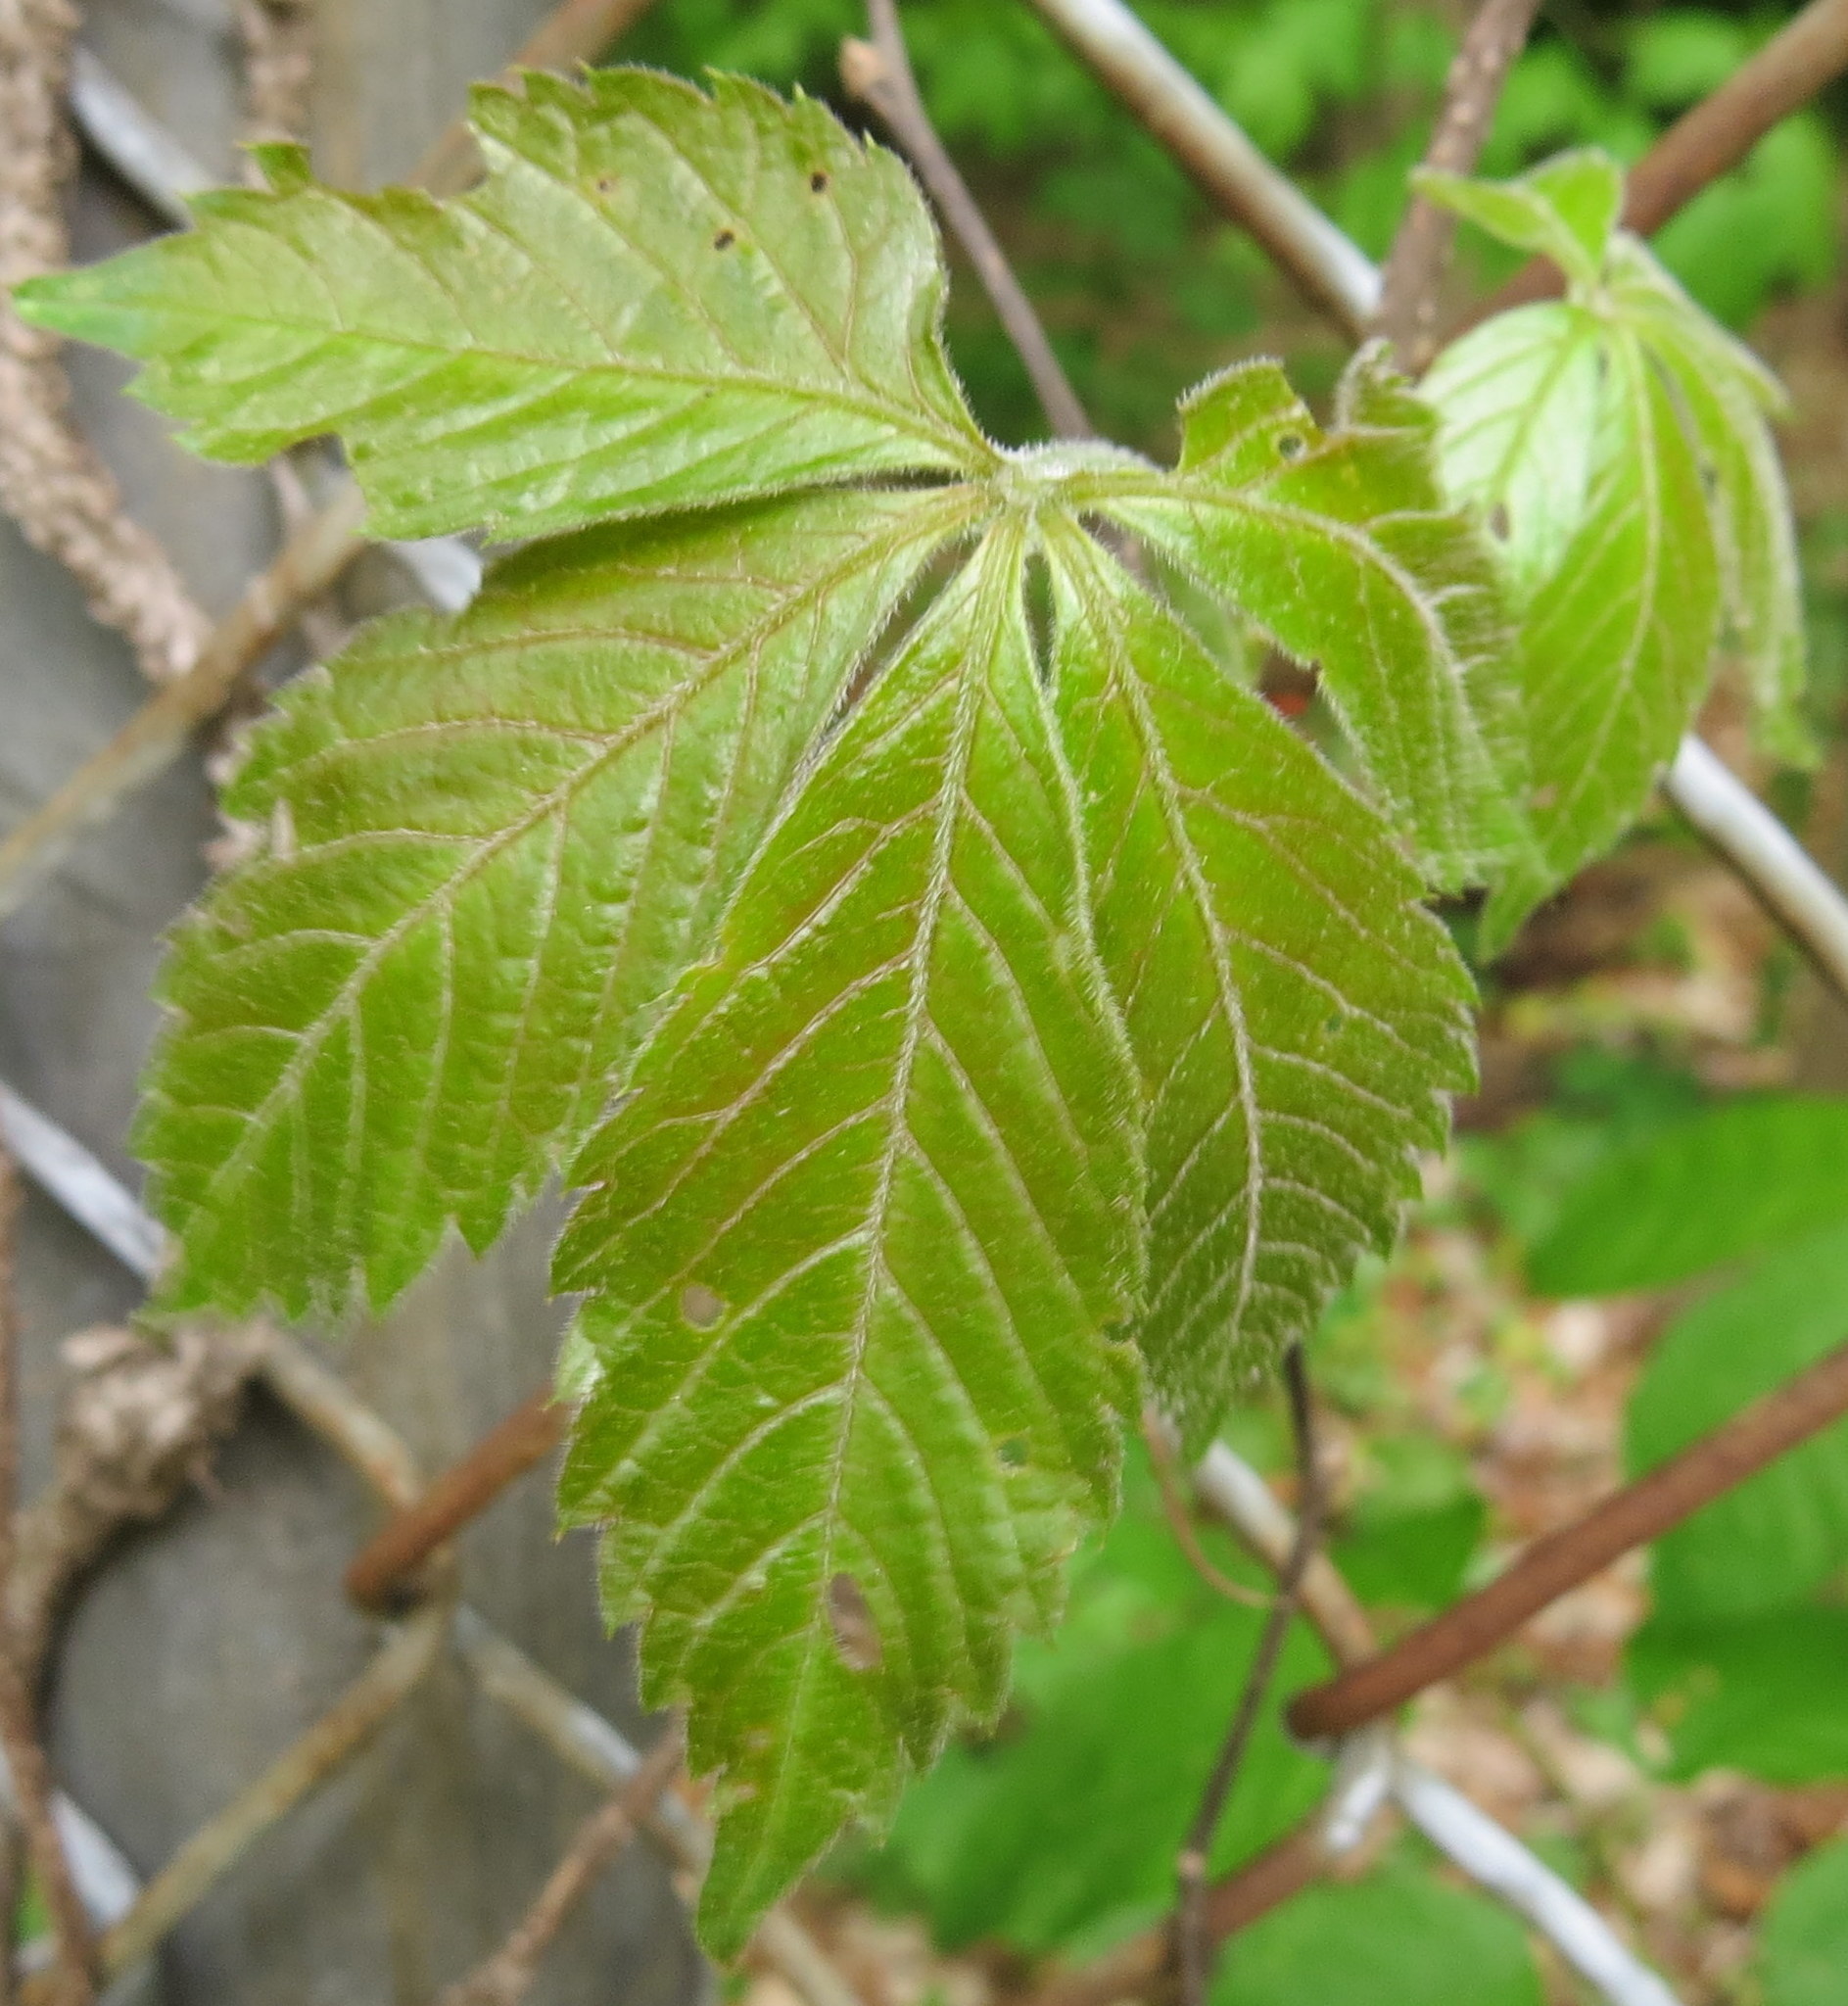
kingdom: Plantae
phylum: Tracheophyta
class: Magnoliopsida
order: Vitales
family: Vitaceae
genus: Parthenocissus
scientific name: Parthenocissus quinquefolia
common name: Virginia-creeper
